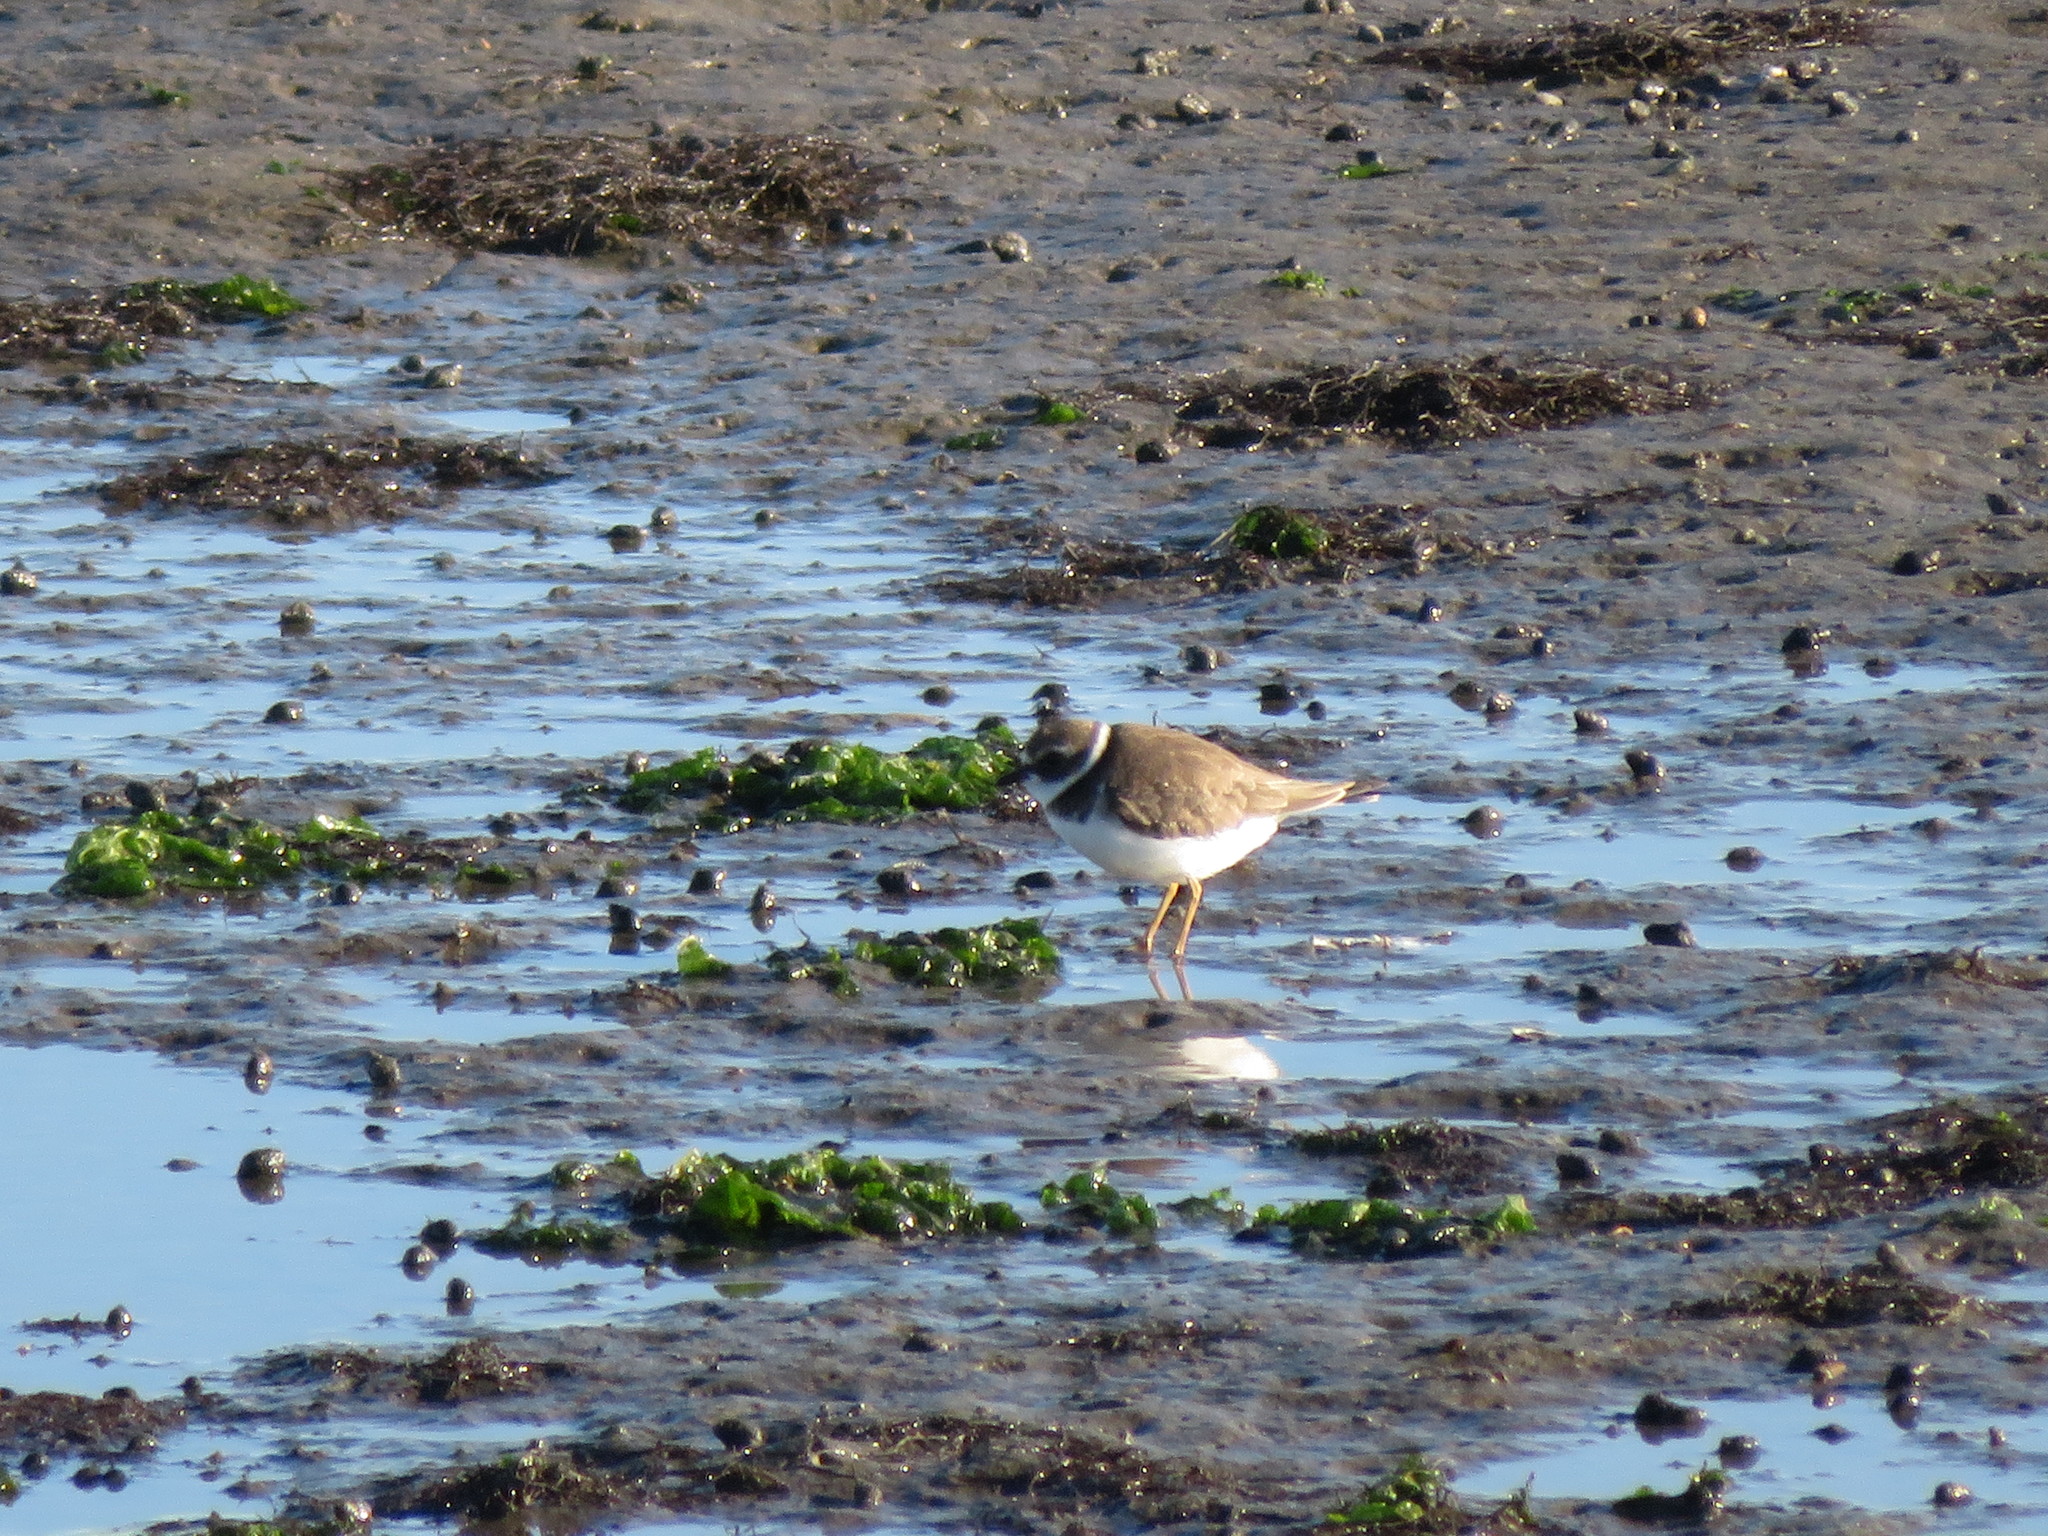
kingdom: Animalia
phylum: Chordata
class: Aves
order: Charadriiformes
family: Charadriidae
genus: Charadrius
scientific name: Charadrius semipalmatus
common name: Semipalmated plover
